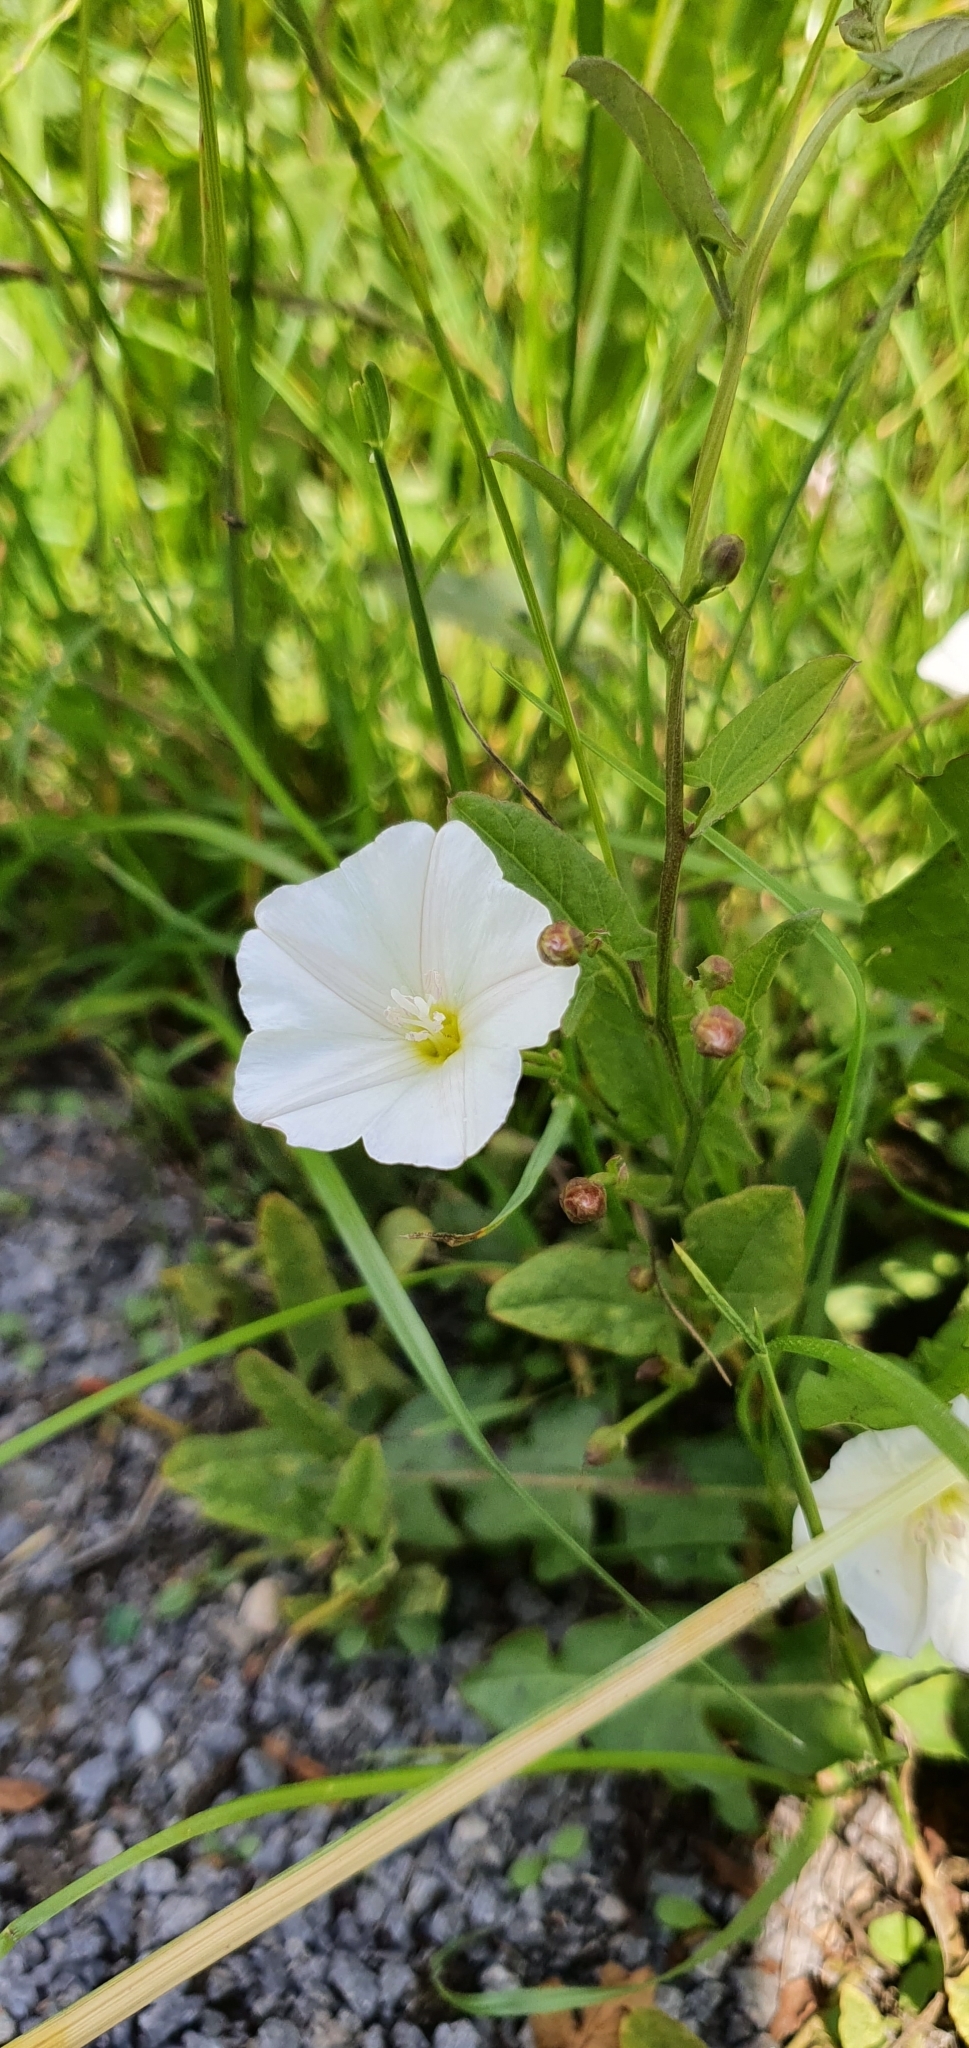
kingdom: Plantae
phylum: Tracheophyta
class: Magnoliopsida
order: Solanales
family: Convolvulaceae
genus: Convolvulus
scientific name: Convolvulus arvensis
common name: Field bindweed
